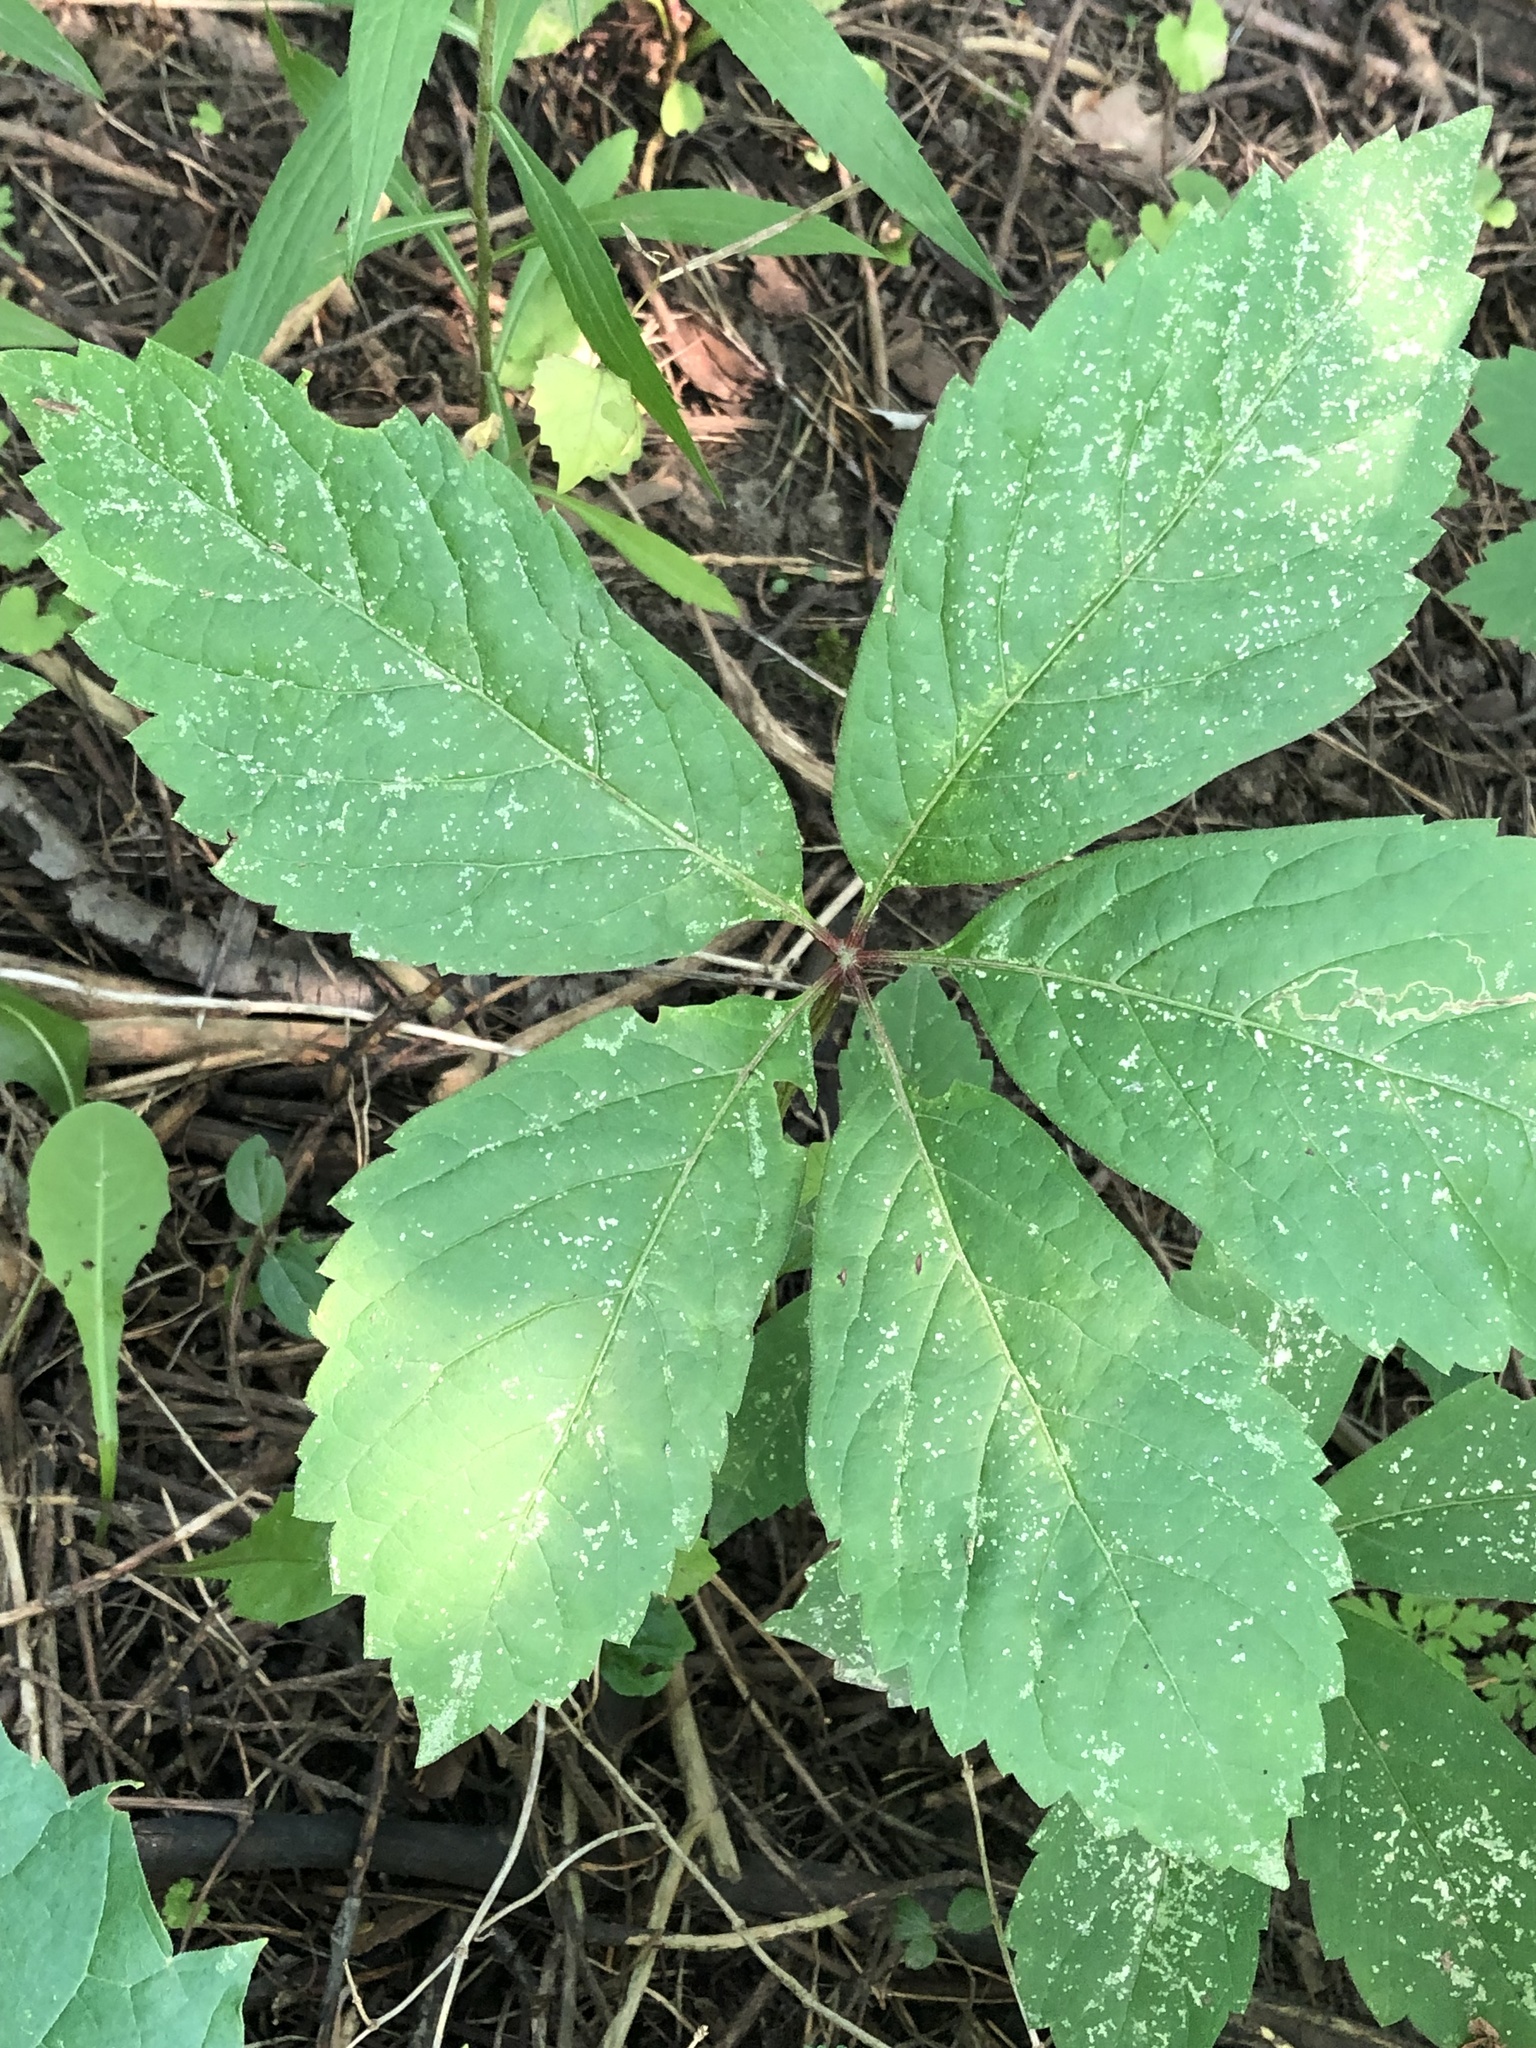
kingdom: Plantae
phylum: Tracheophyta
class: Magnoliopsida
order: Vitales
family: Vitaceae
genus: Parthenocissus
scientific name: Parthenocissus inserta
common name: False virginia-creeper
